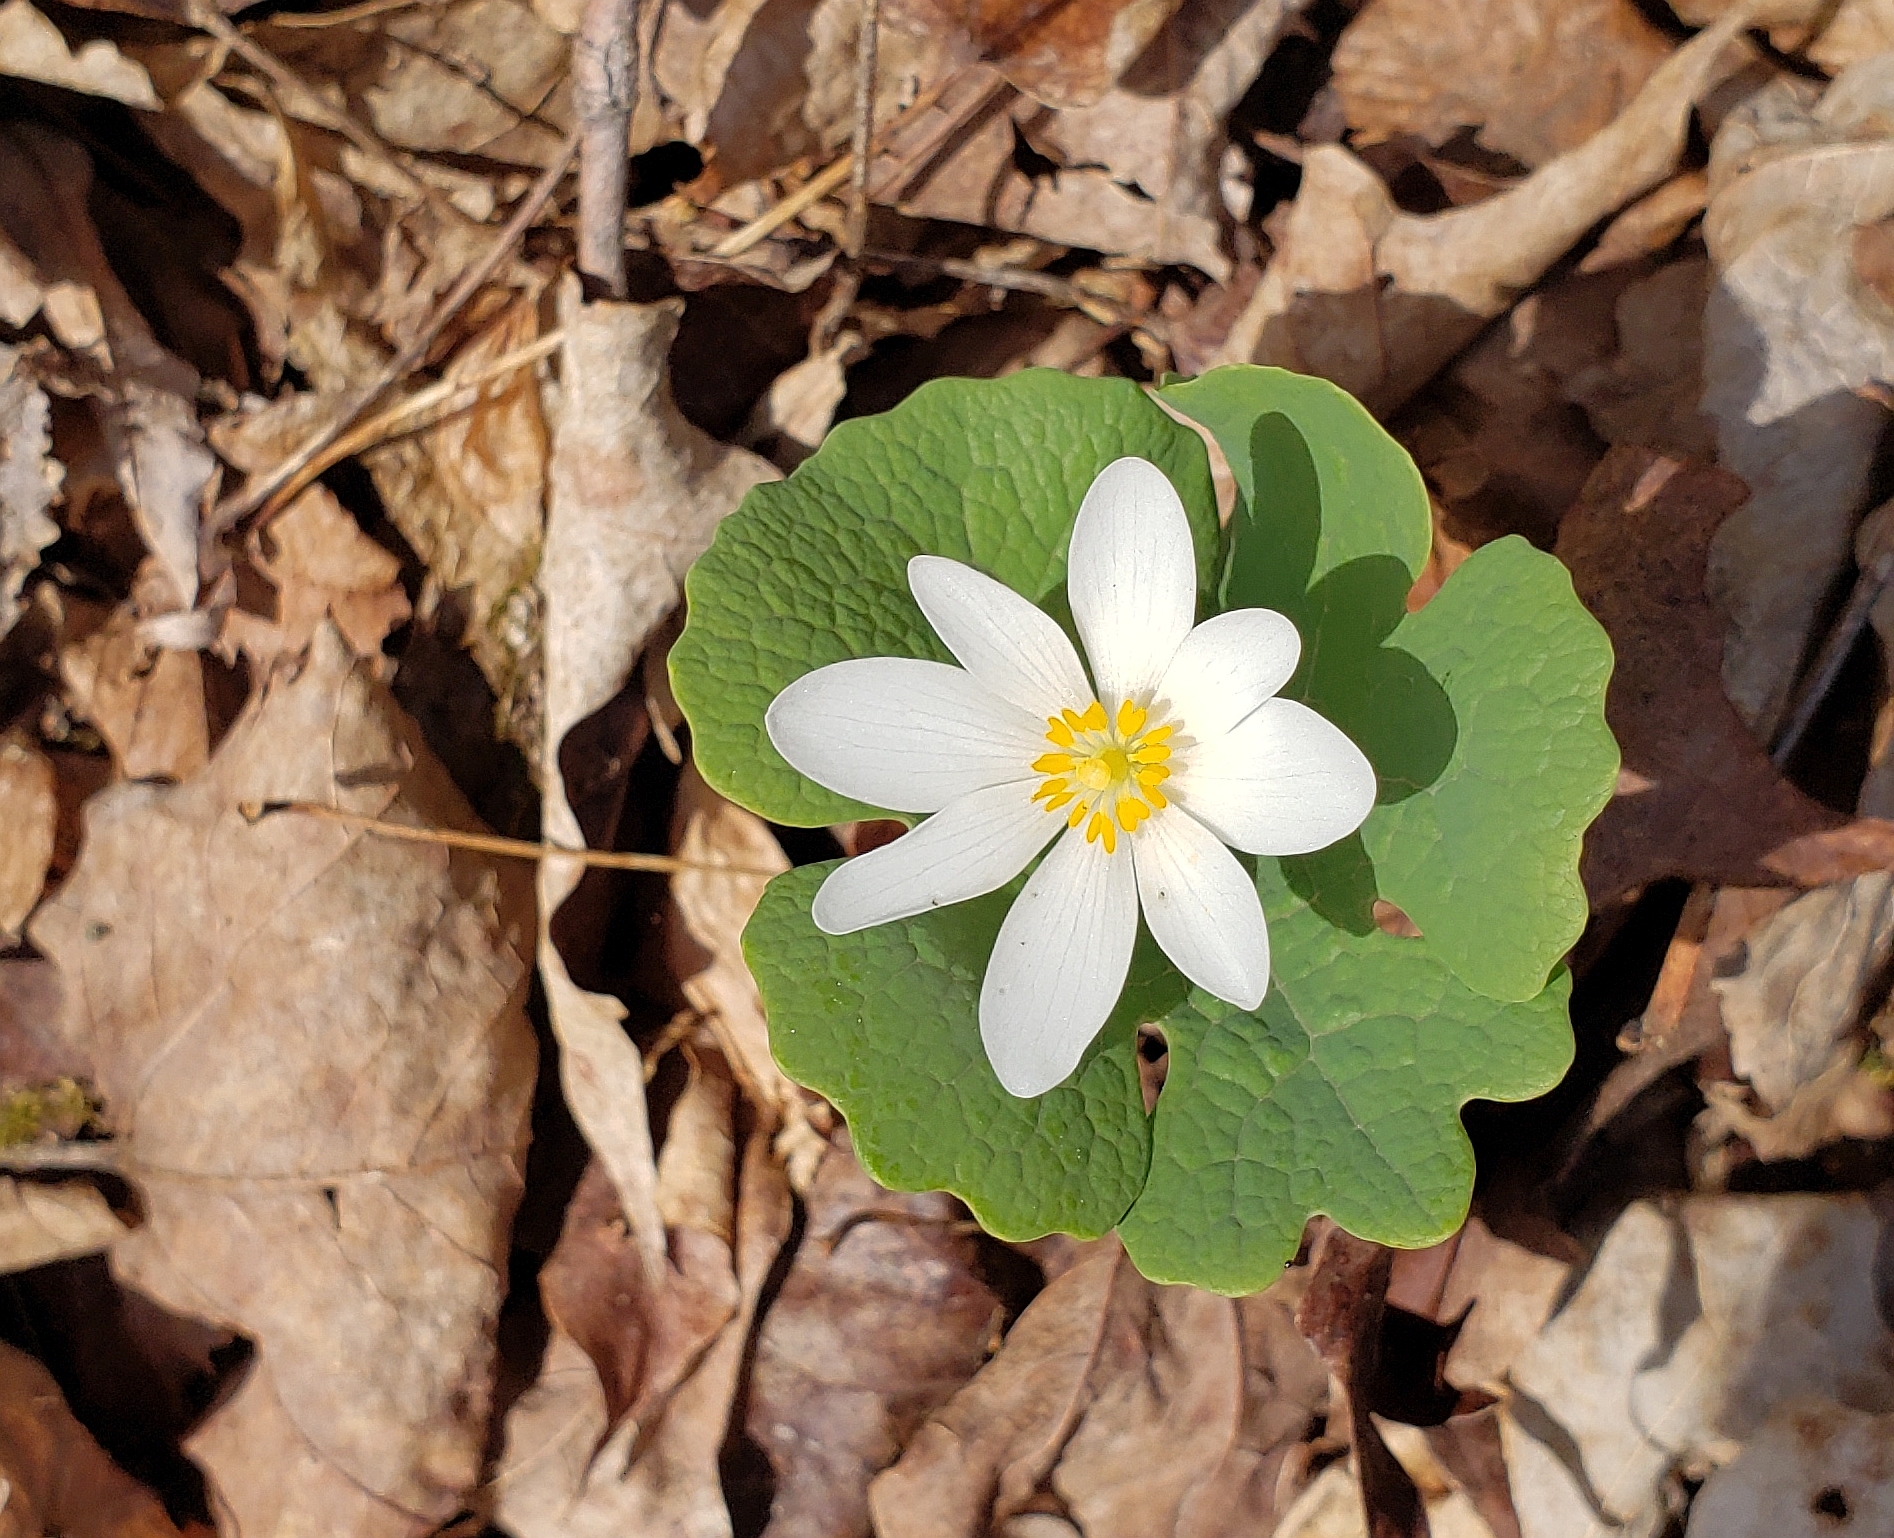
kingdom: Plantae
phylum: Tracheophyta
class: Magnoliopsida
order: Ranunculales
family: Papaveraceae
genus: Sanguinaria
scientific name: Sanguinaria canadensis
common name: Bloodroot
